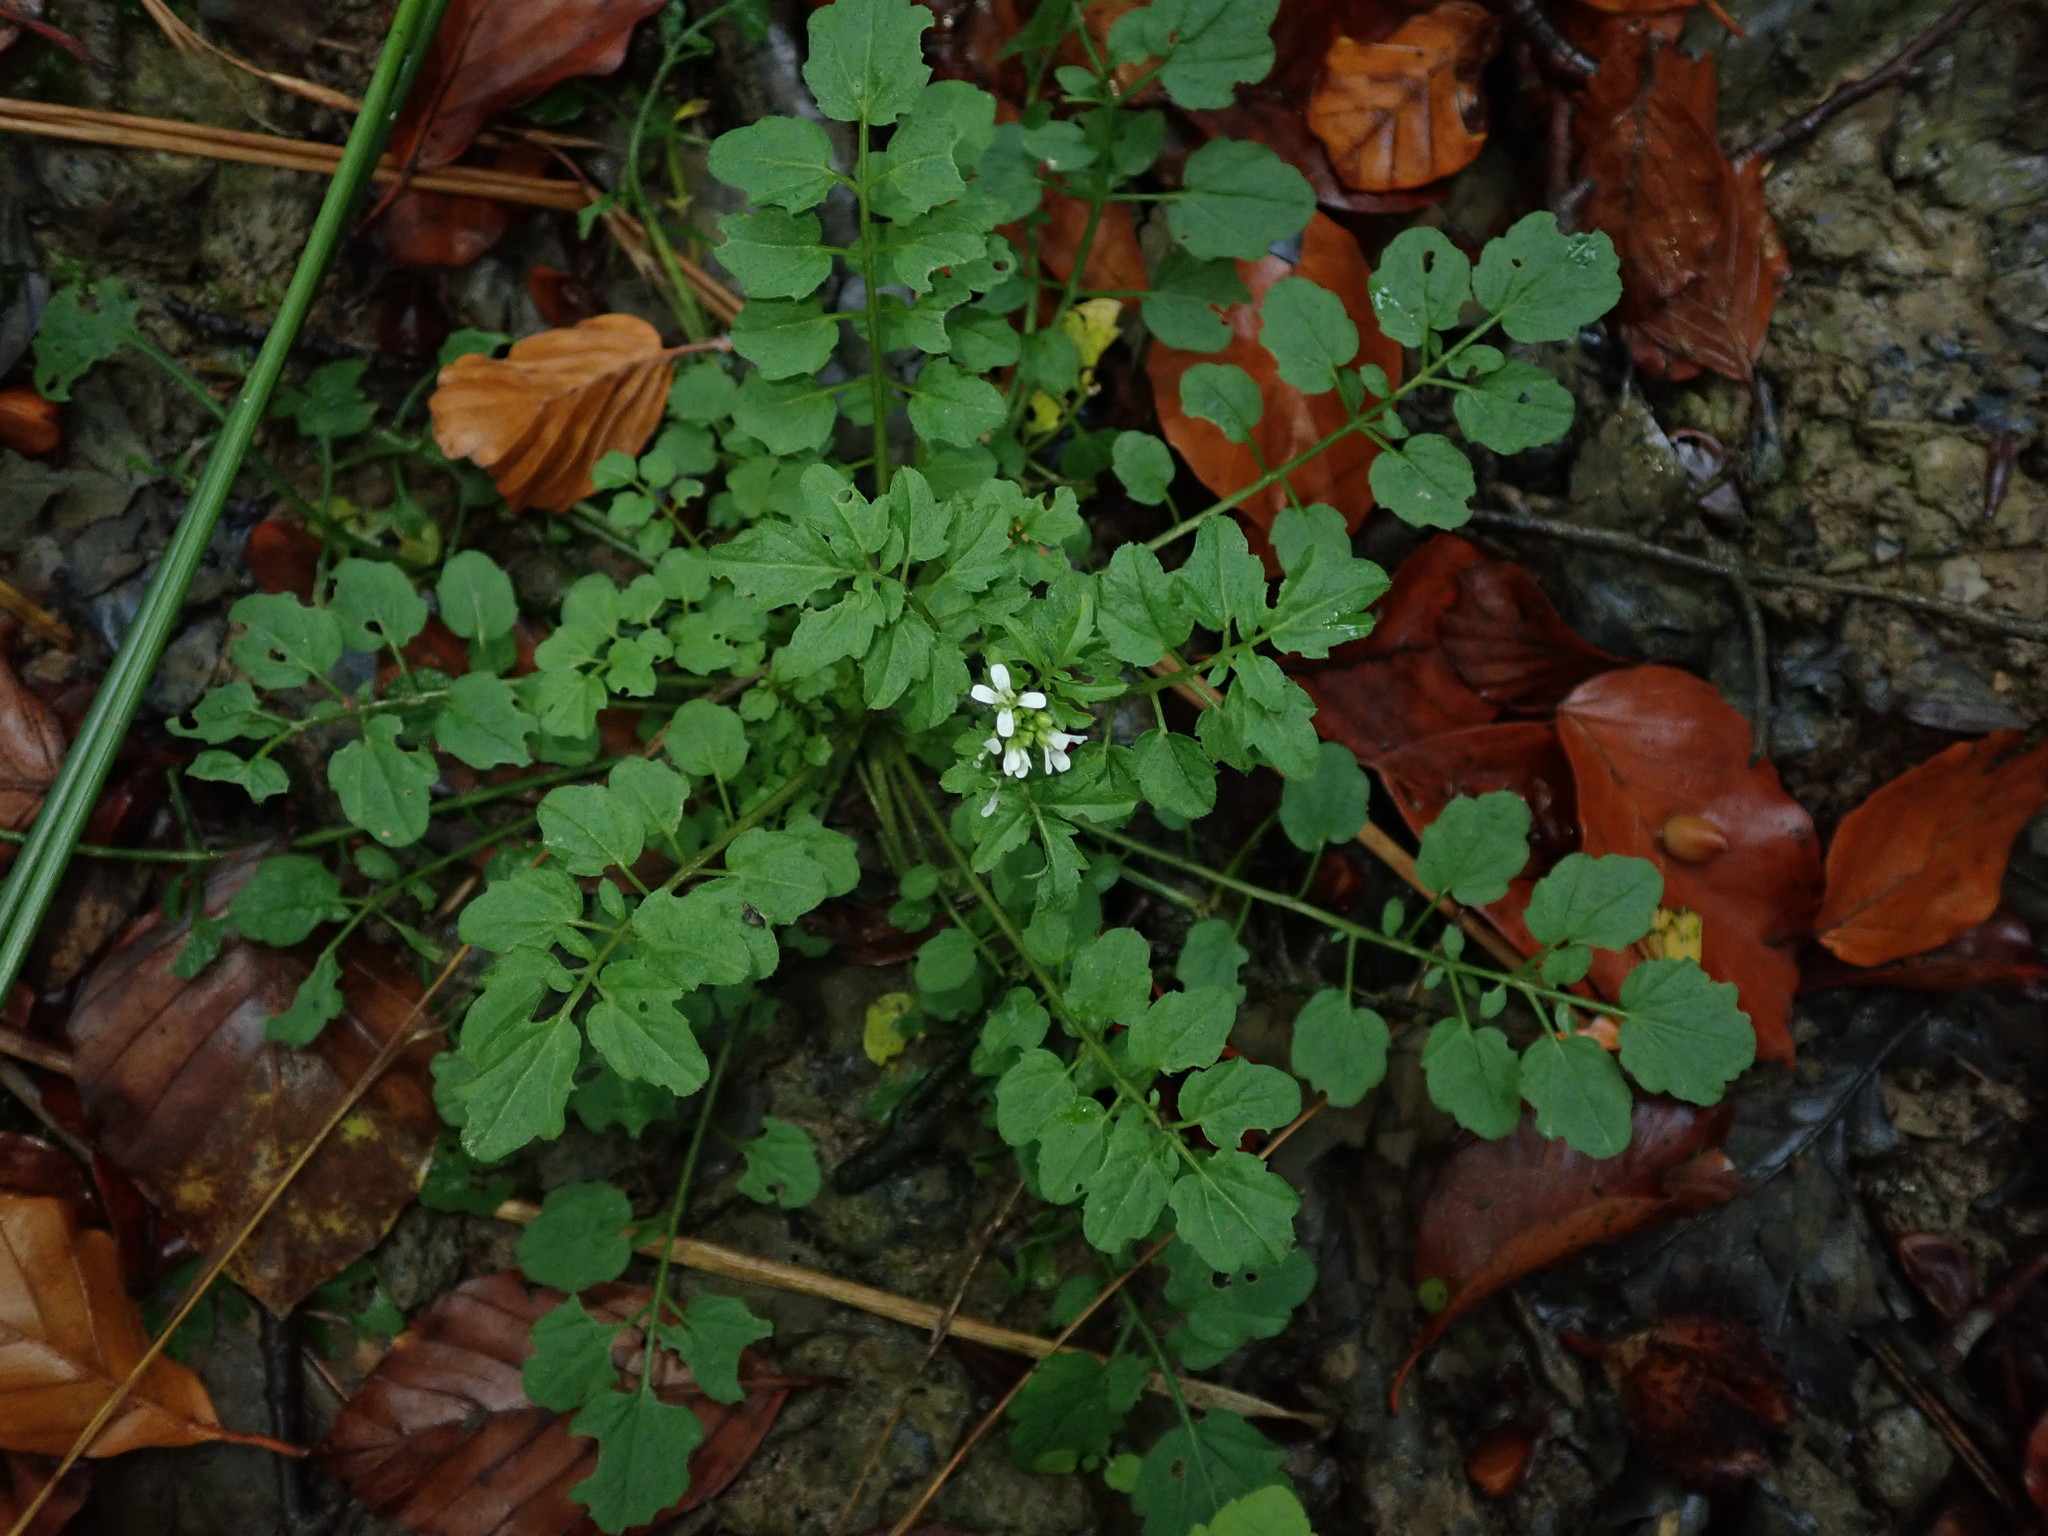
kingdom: Plantae
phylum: Tracheophyta
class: Magnoliopsida
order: Brassicales
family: Brassicaceae
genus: Cardamine
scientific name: Cardamine flexuosa
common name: Woodland bittercress
